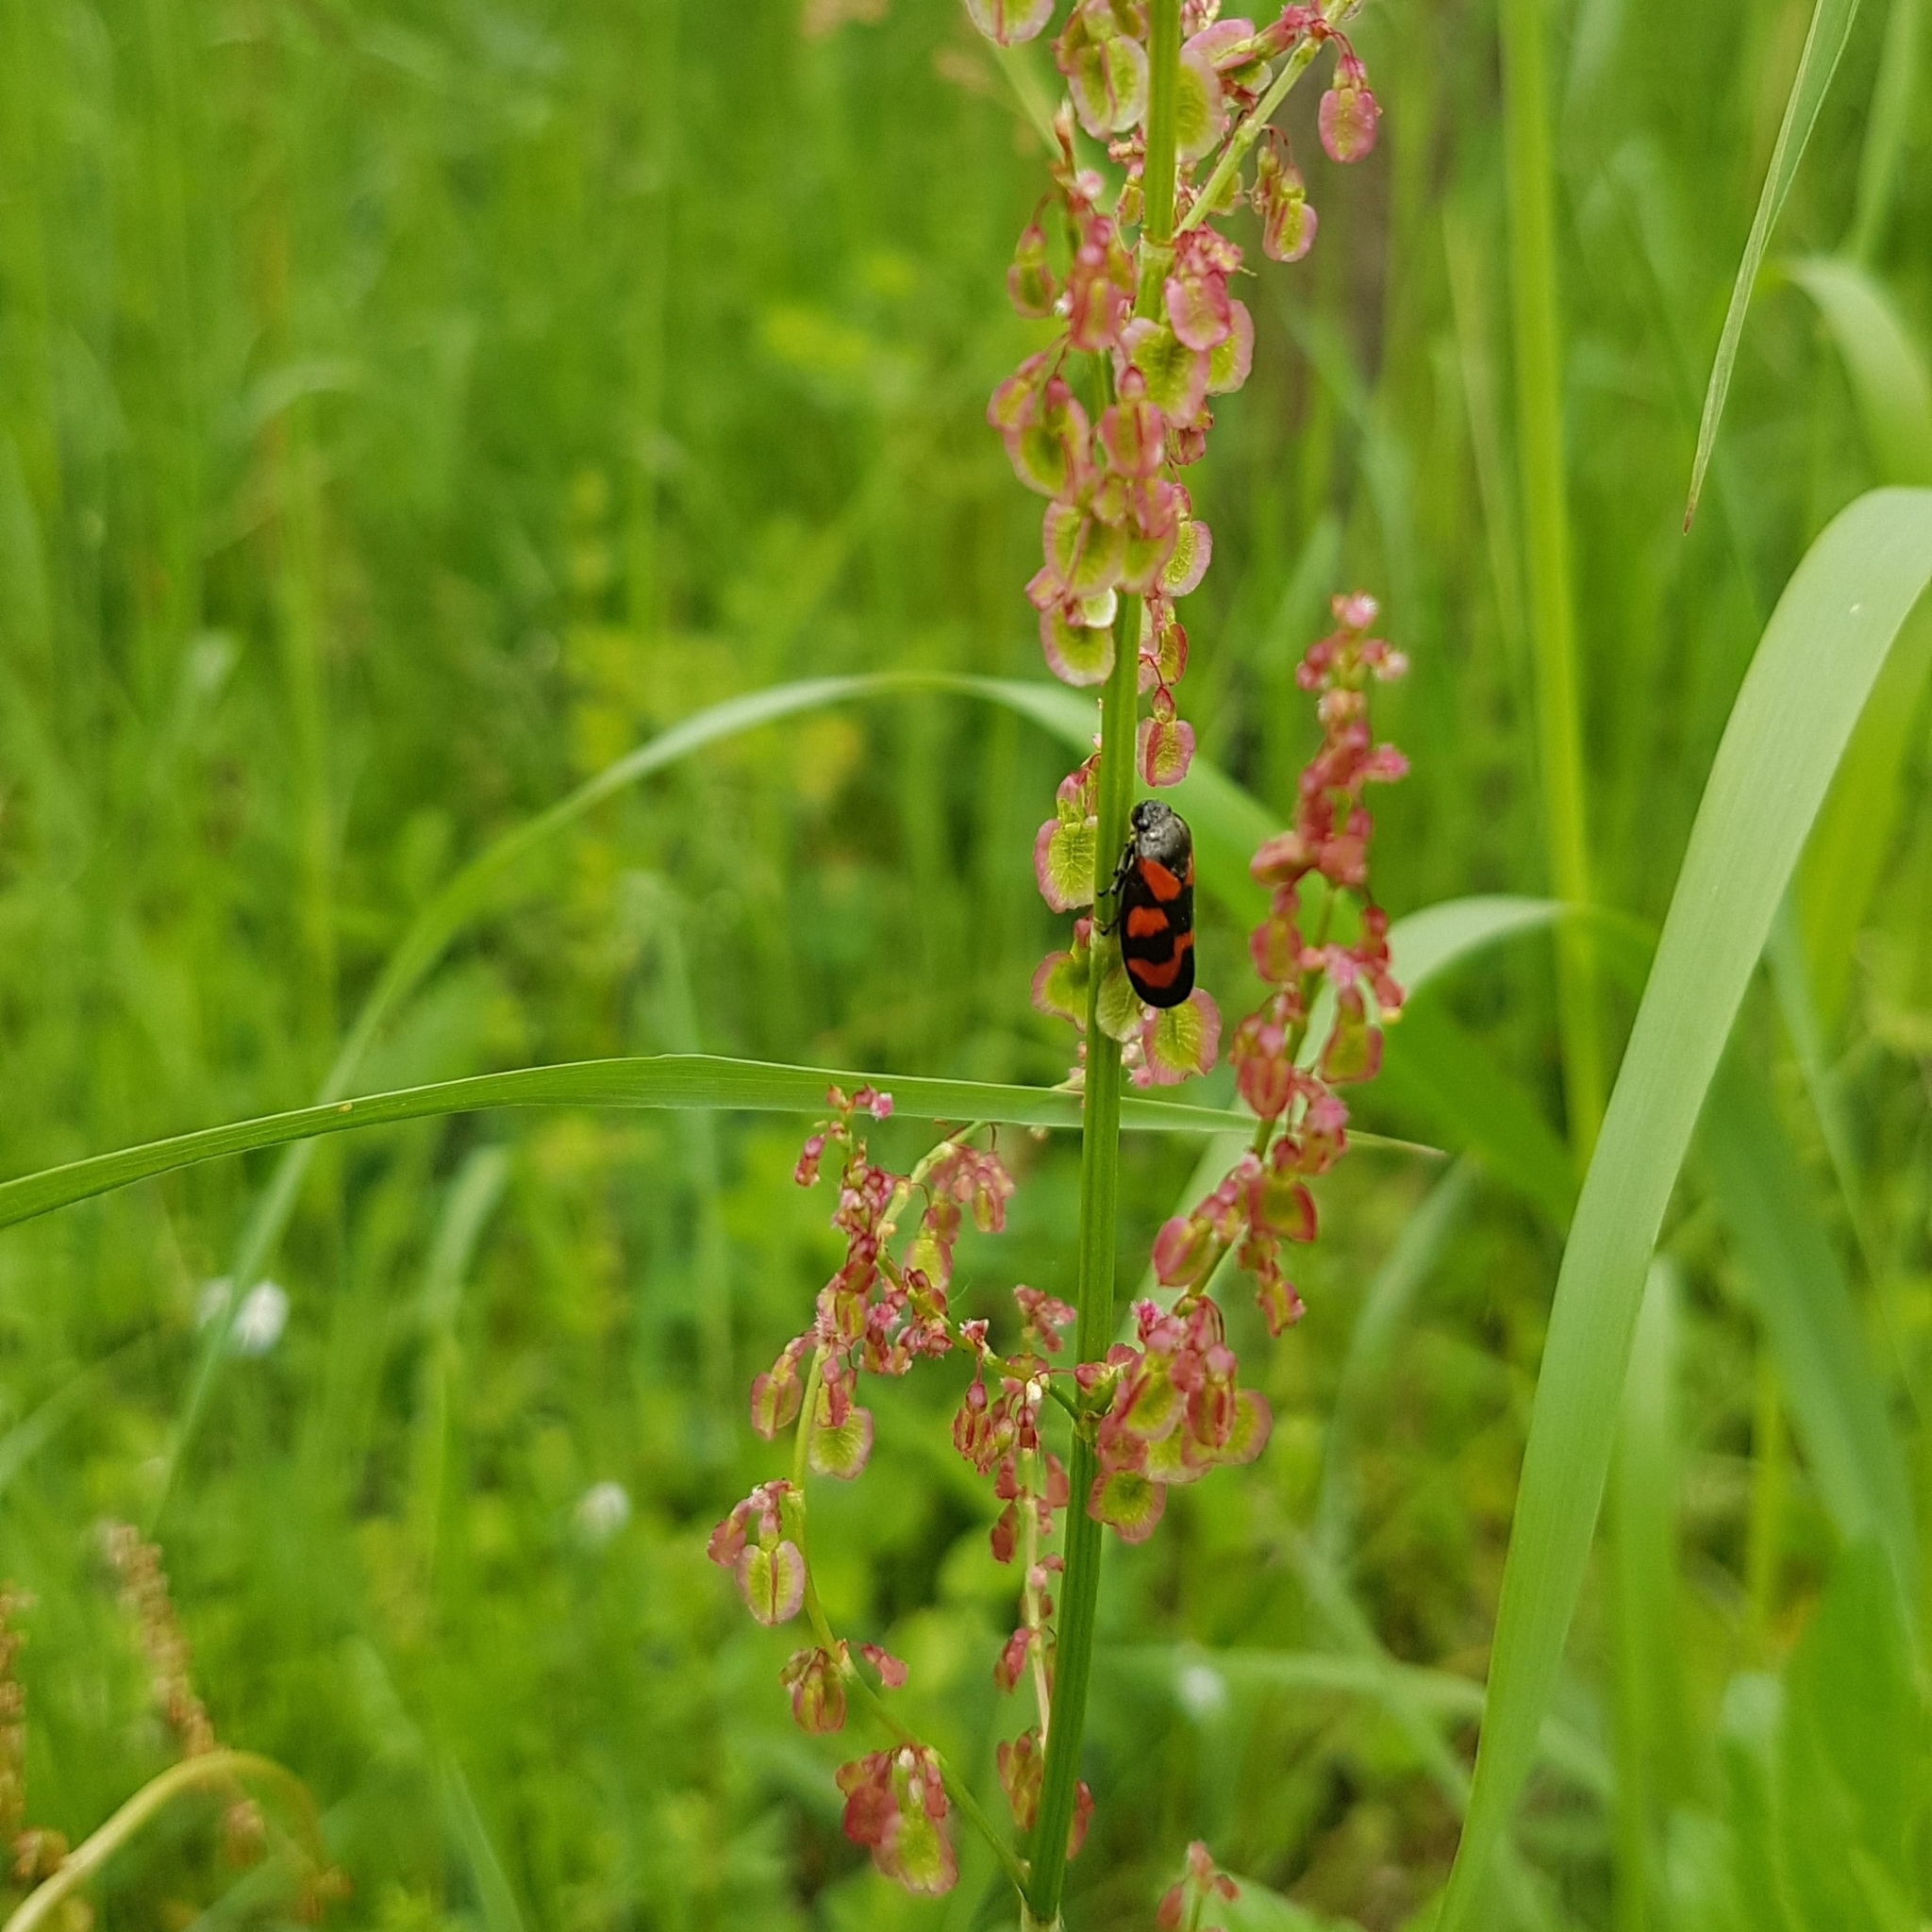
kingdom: Animalia
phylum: Arthropoda
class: Insecta
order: Hemiptera
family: Cercopidae
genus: Cercopis
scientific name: Cercopis vulnerata
